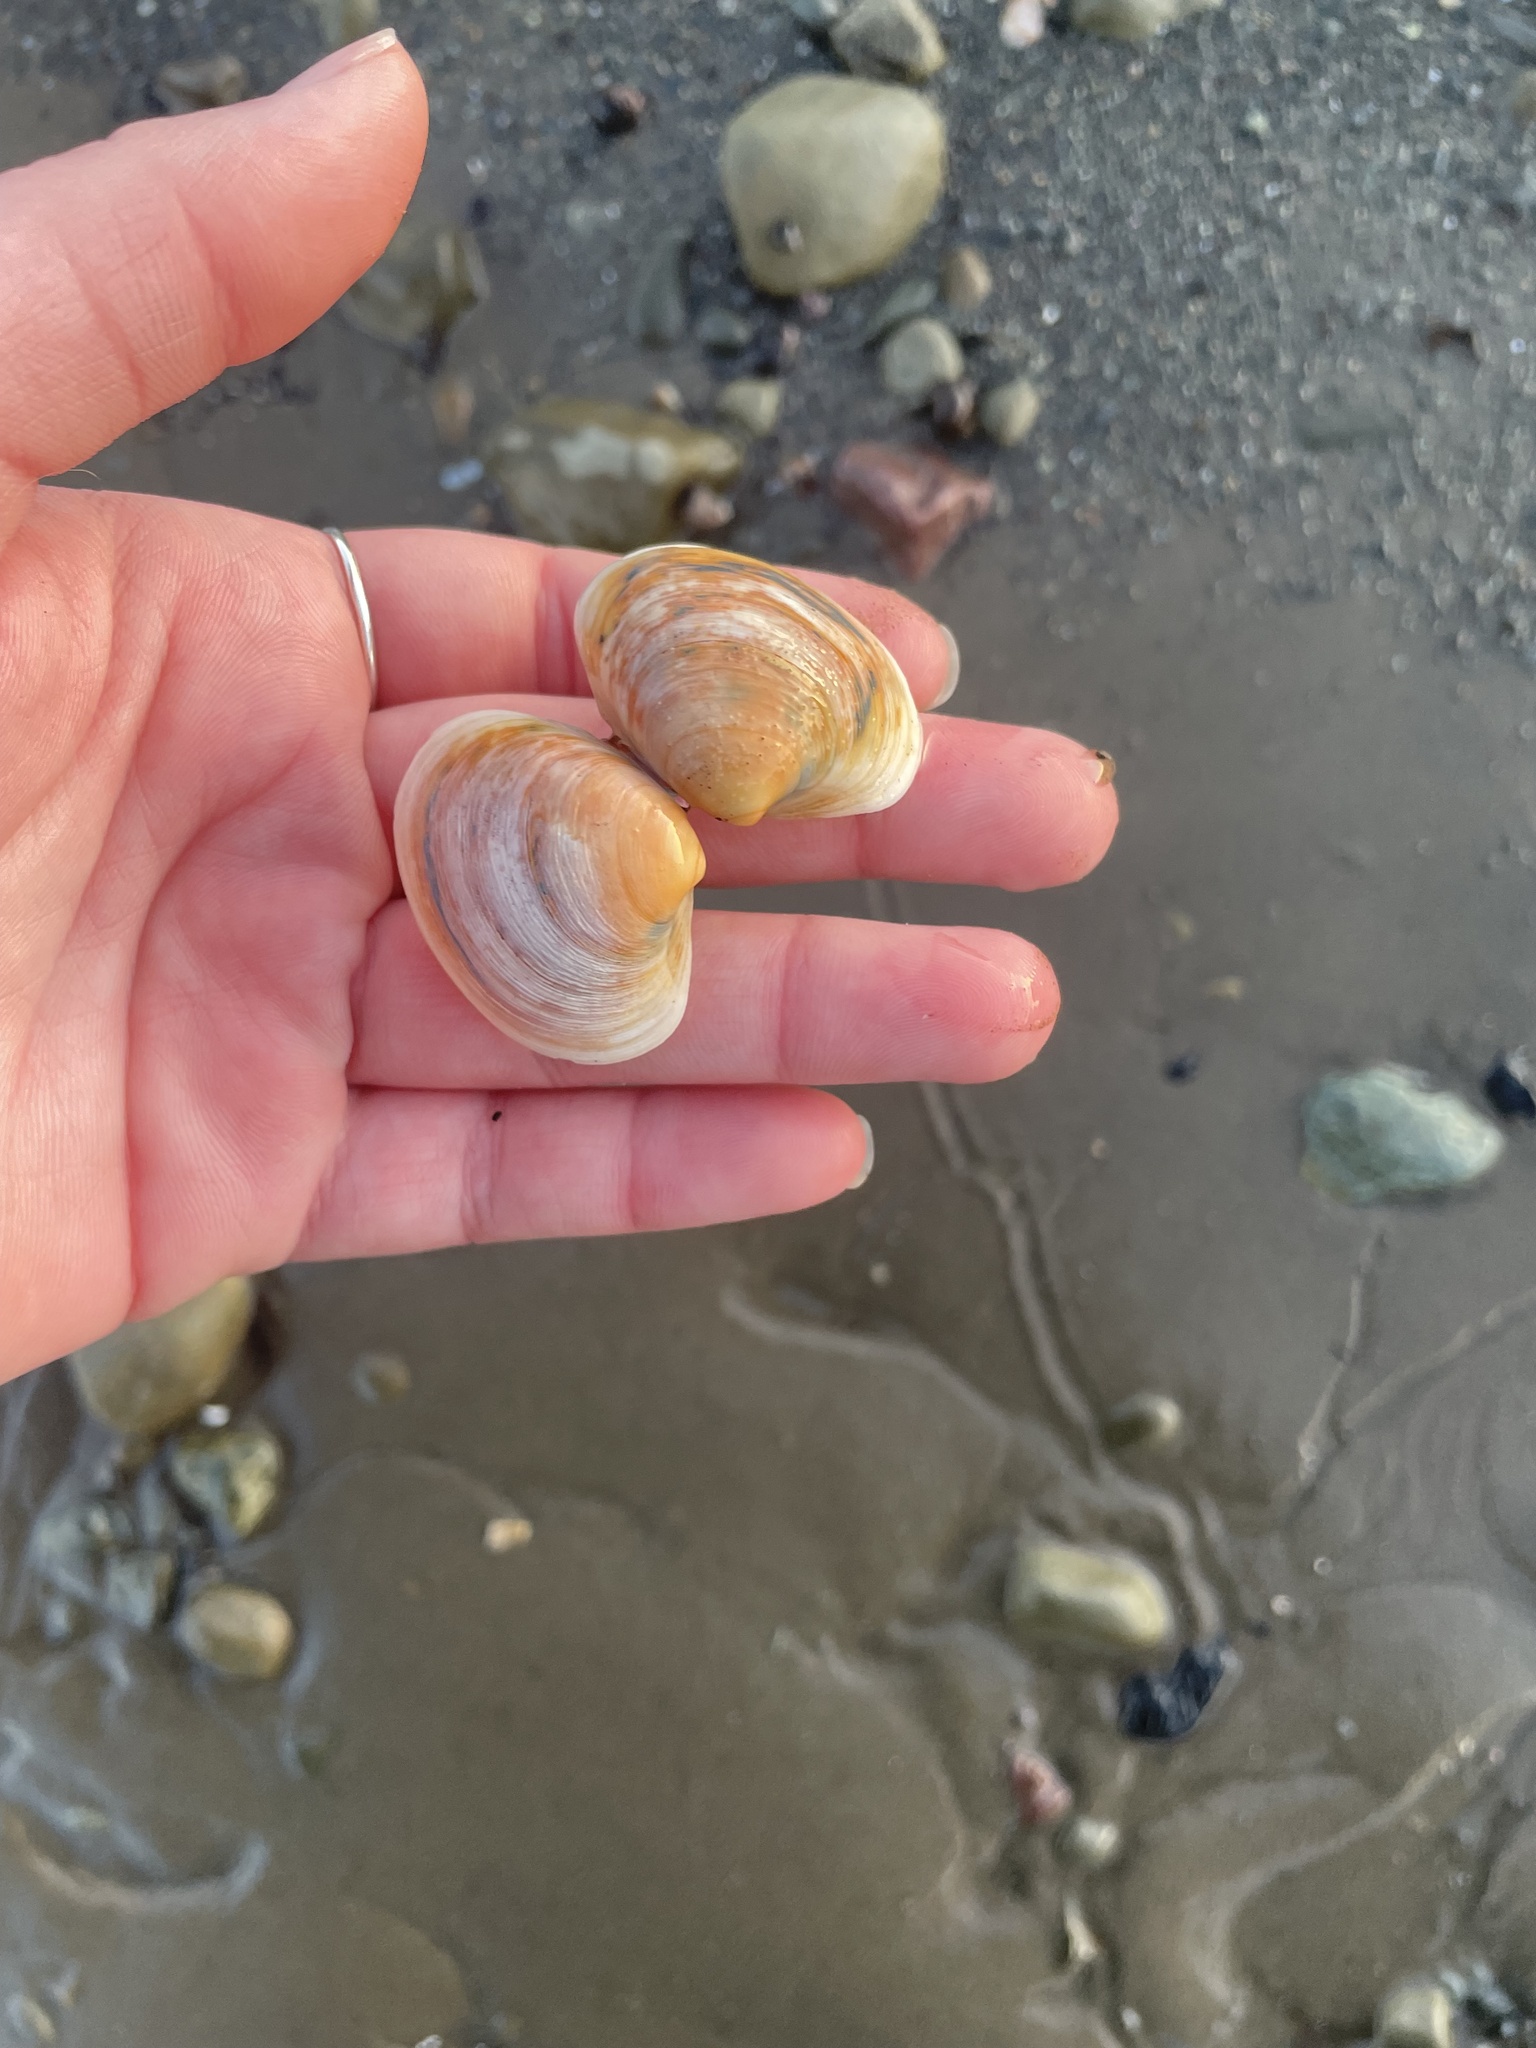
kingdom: Animalia
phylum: Mollusca
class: Bivalvia
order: Venerida
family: Veneridae
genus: Agriopoma
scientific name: Agriopoma morrhuanum
